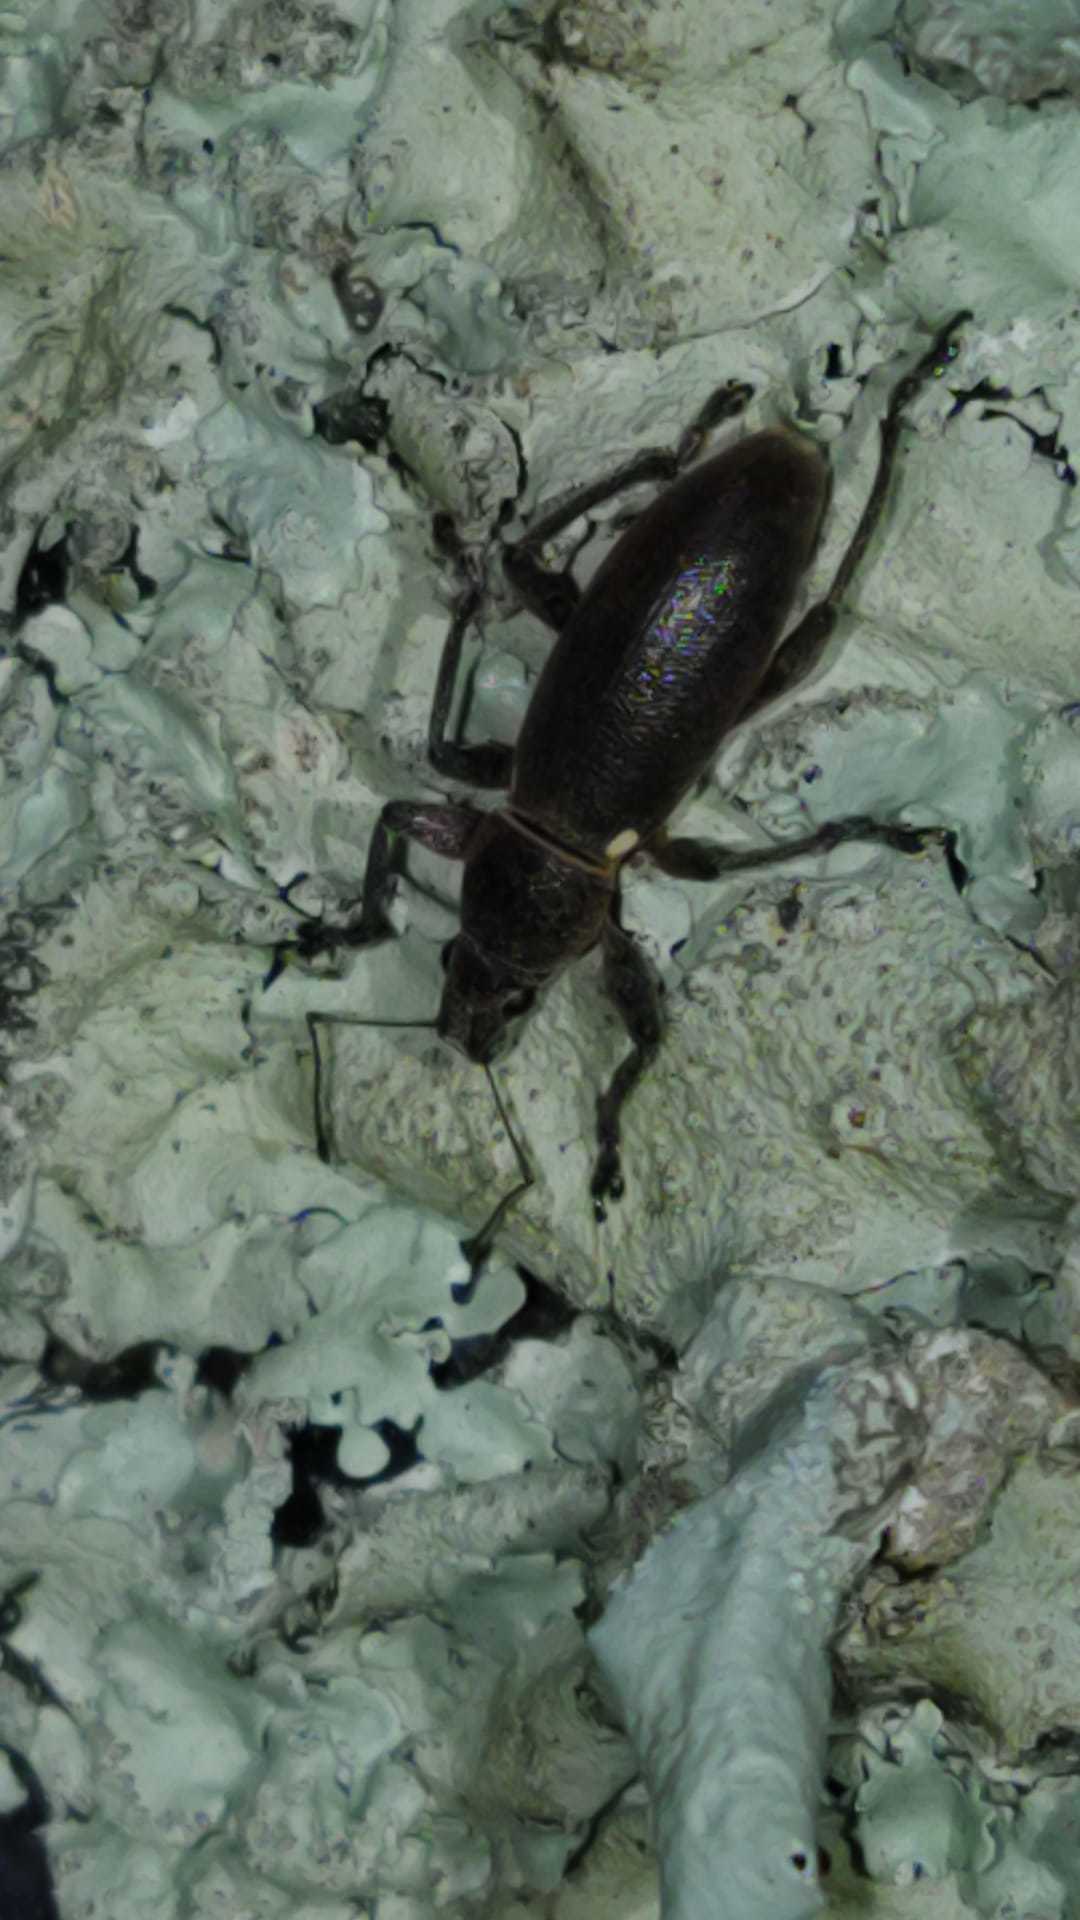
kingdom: Animalia
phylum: Arthropoda
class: Insecta
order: Coleoptera
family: Curculionidae
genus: Brachyderes
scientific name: Brachyderes lusitanicus
